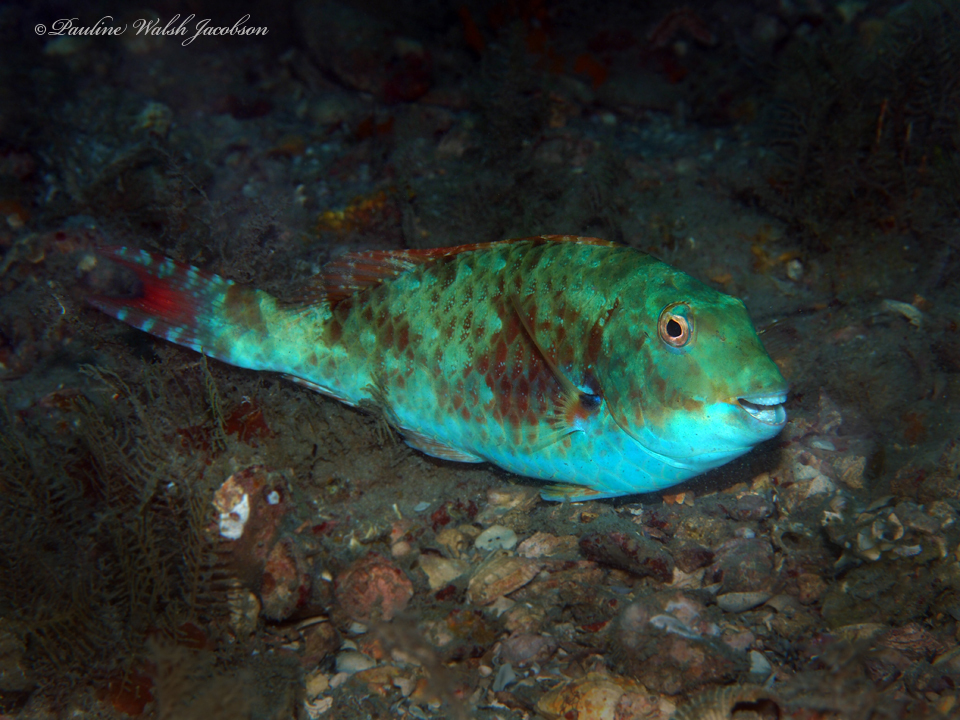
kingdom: Animalia
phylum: Chordata
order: Perciformes
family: Scaridae
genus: Sparisoma
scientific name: Sparisoma chrysopterum
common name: Redtail parrotfish
